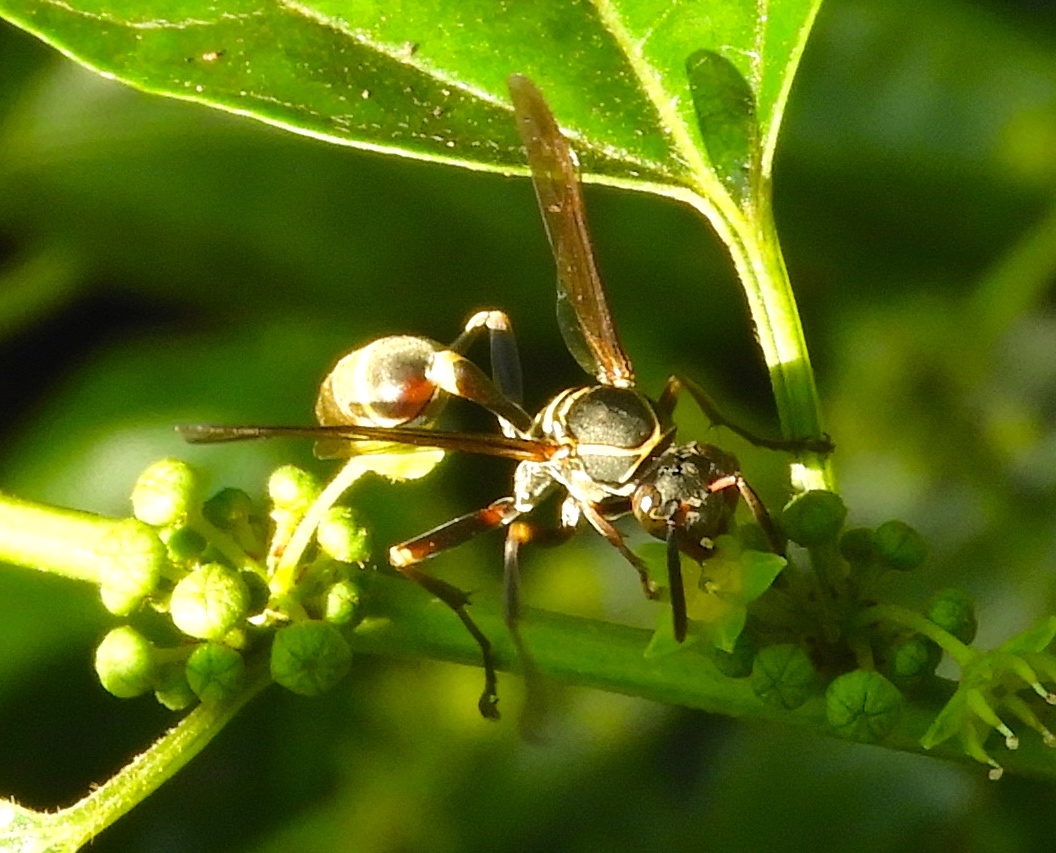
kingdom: Animalia
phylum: Arthropoda
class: Insecta
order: Hymenoptera
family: Vespidae
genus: Mischocyttarus
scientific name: Mischocyttarus mexicanus
